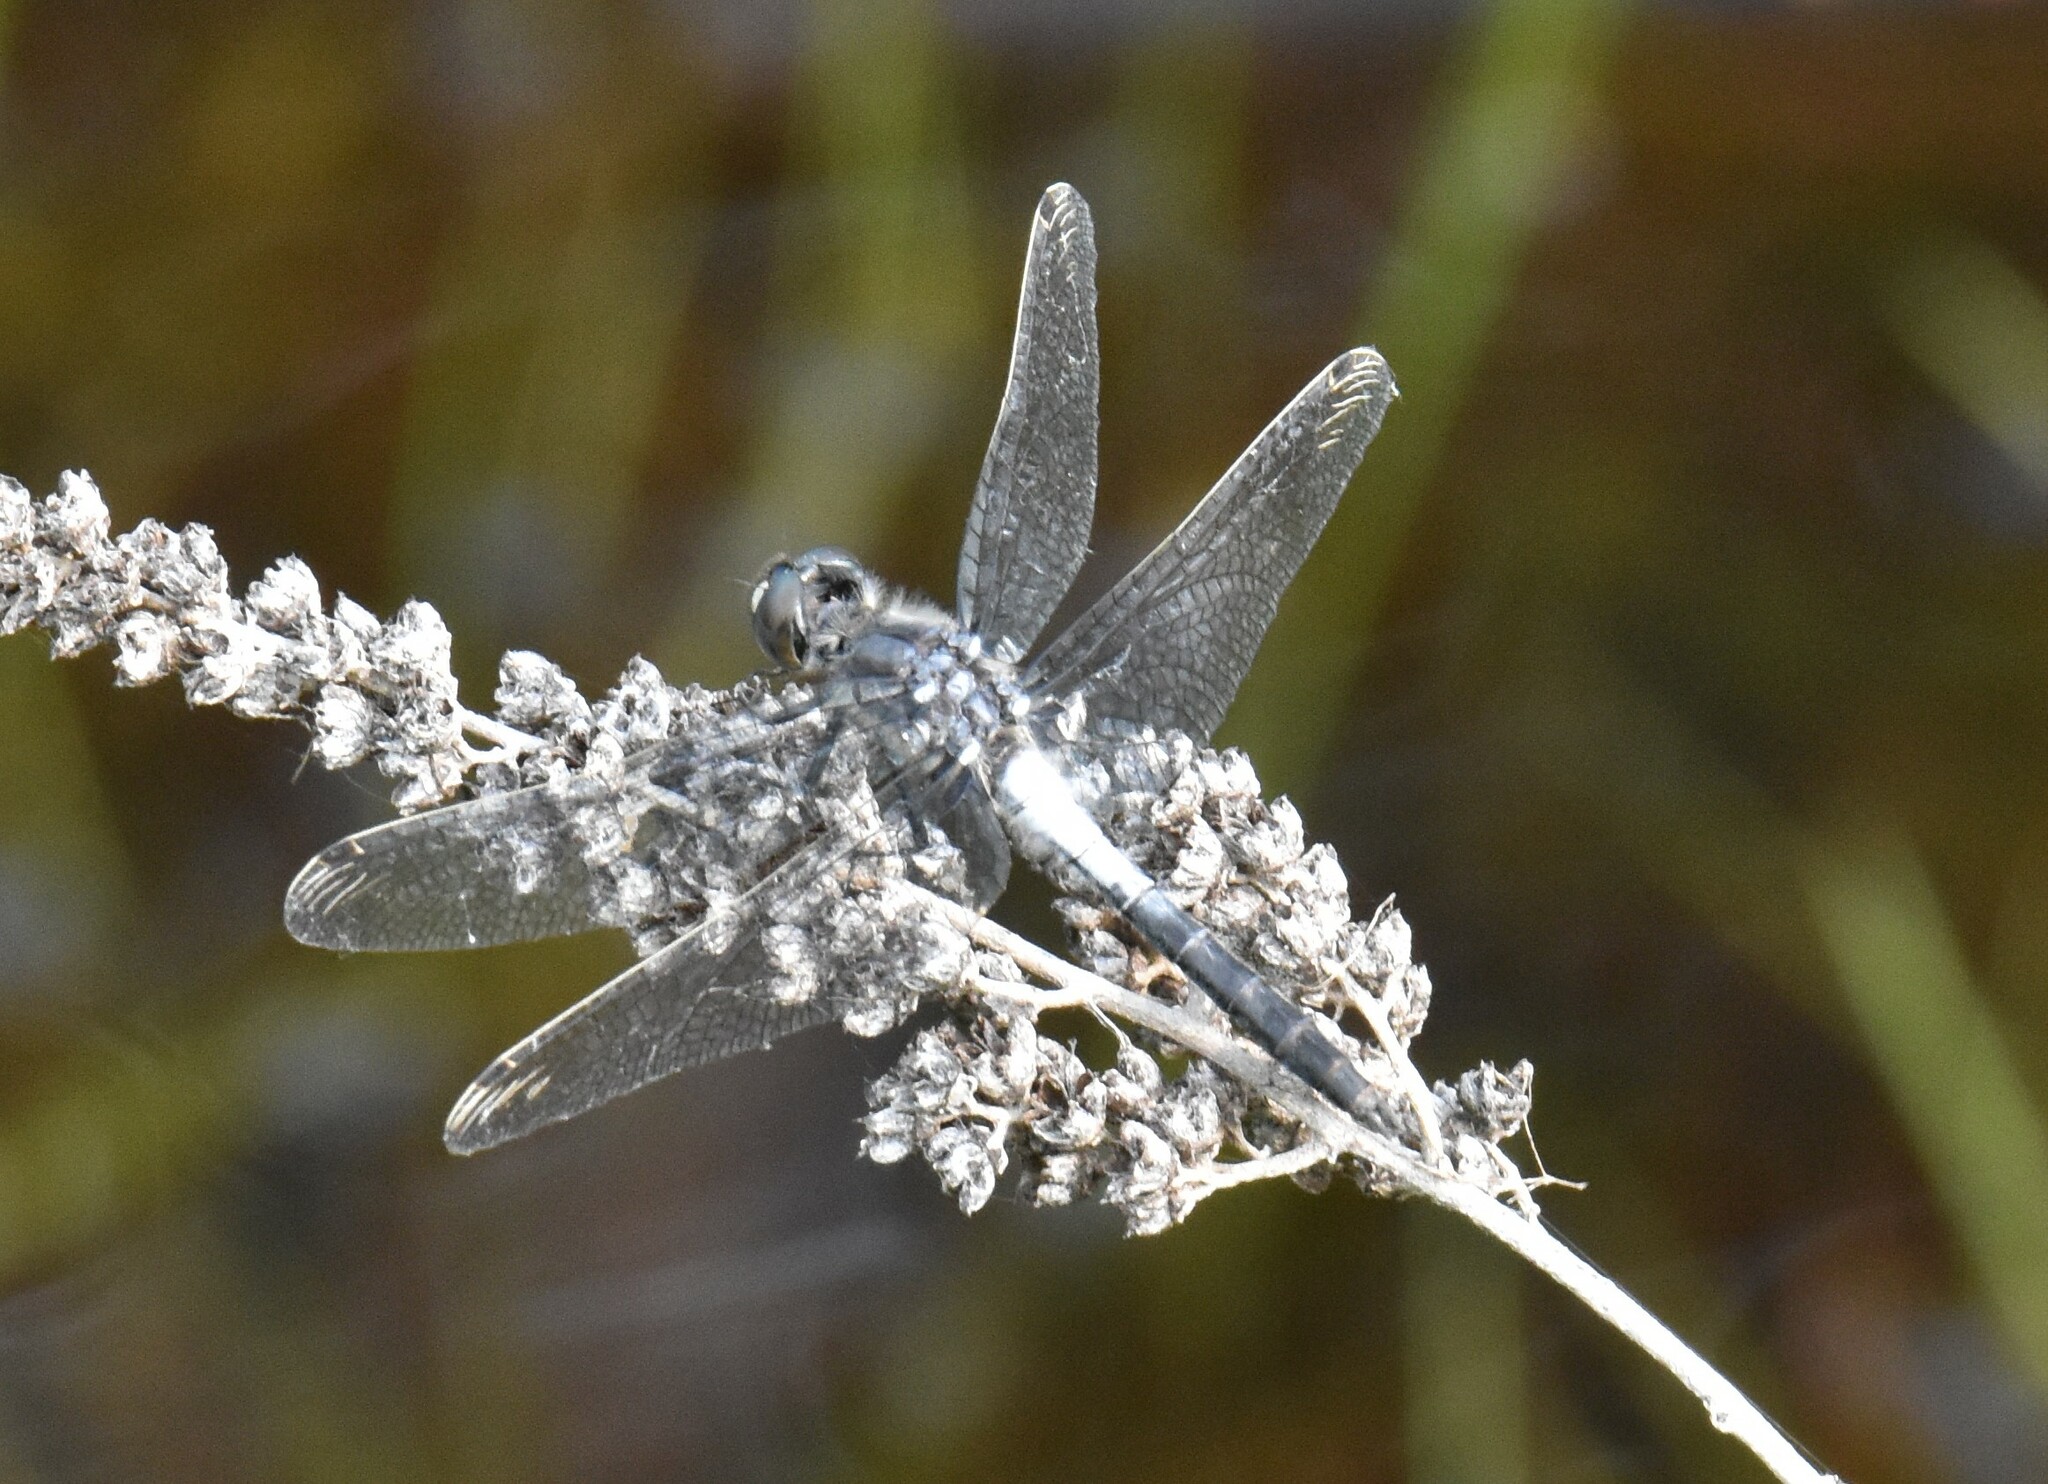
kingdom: Animalia
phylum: Arthropoda
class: Insecta
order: Odonata
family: Libellulidae
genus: Leucorrhinia
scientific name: Leucorrhinia frigida
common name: Frosted whiteface
